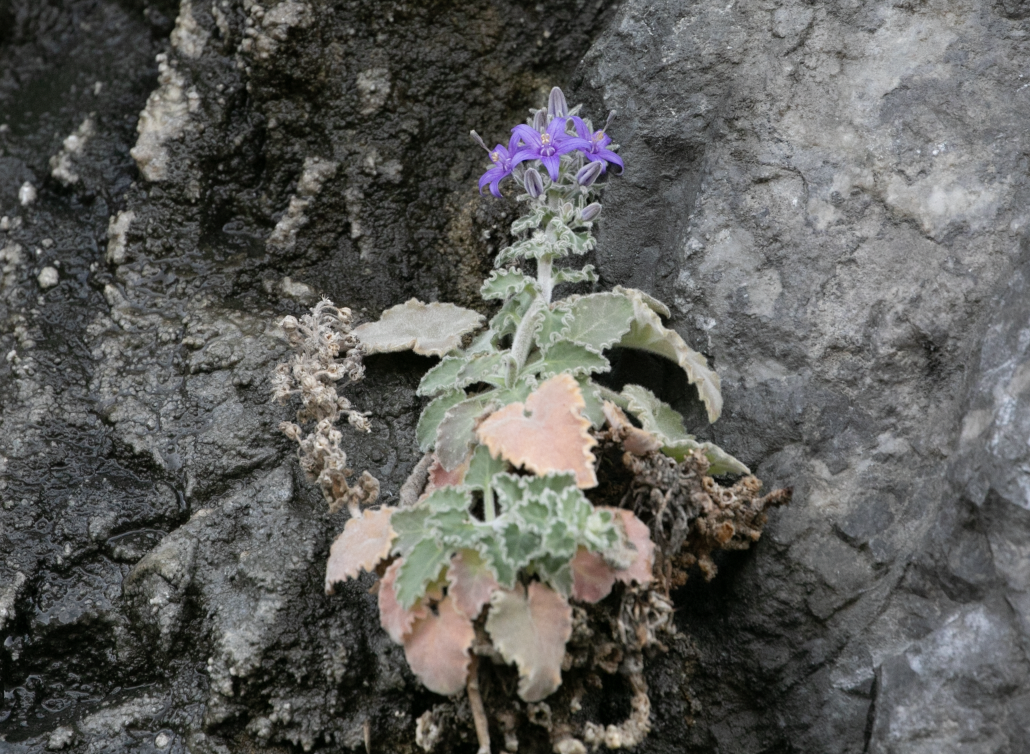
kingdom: Plantae
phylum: Tracheophyta
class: Magnoliopsida
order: Asterales
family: Campanulaceae
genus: Campanula
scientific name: Campanula elatinoides
